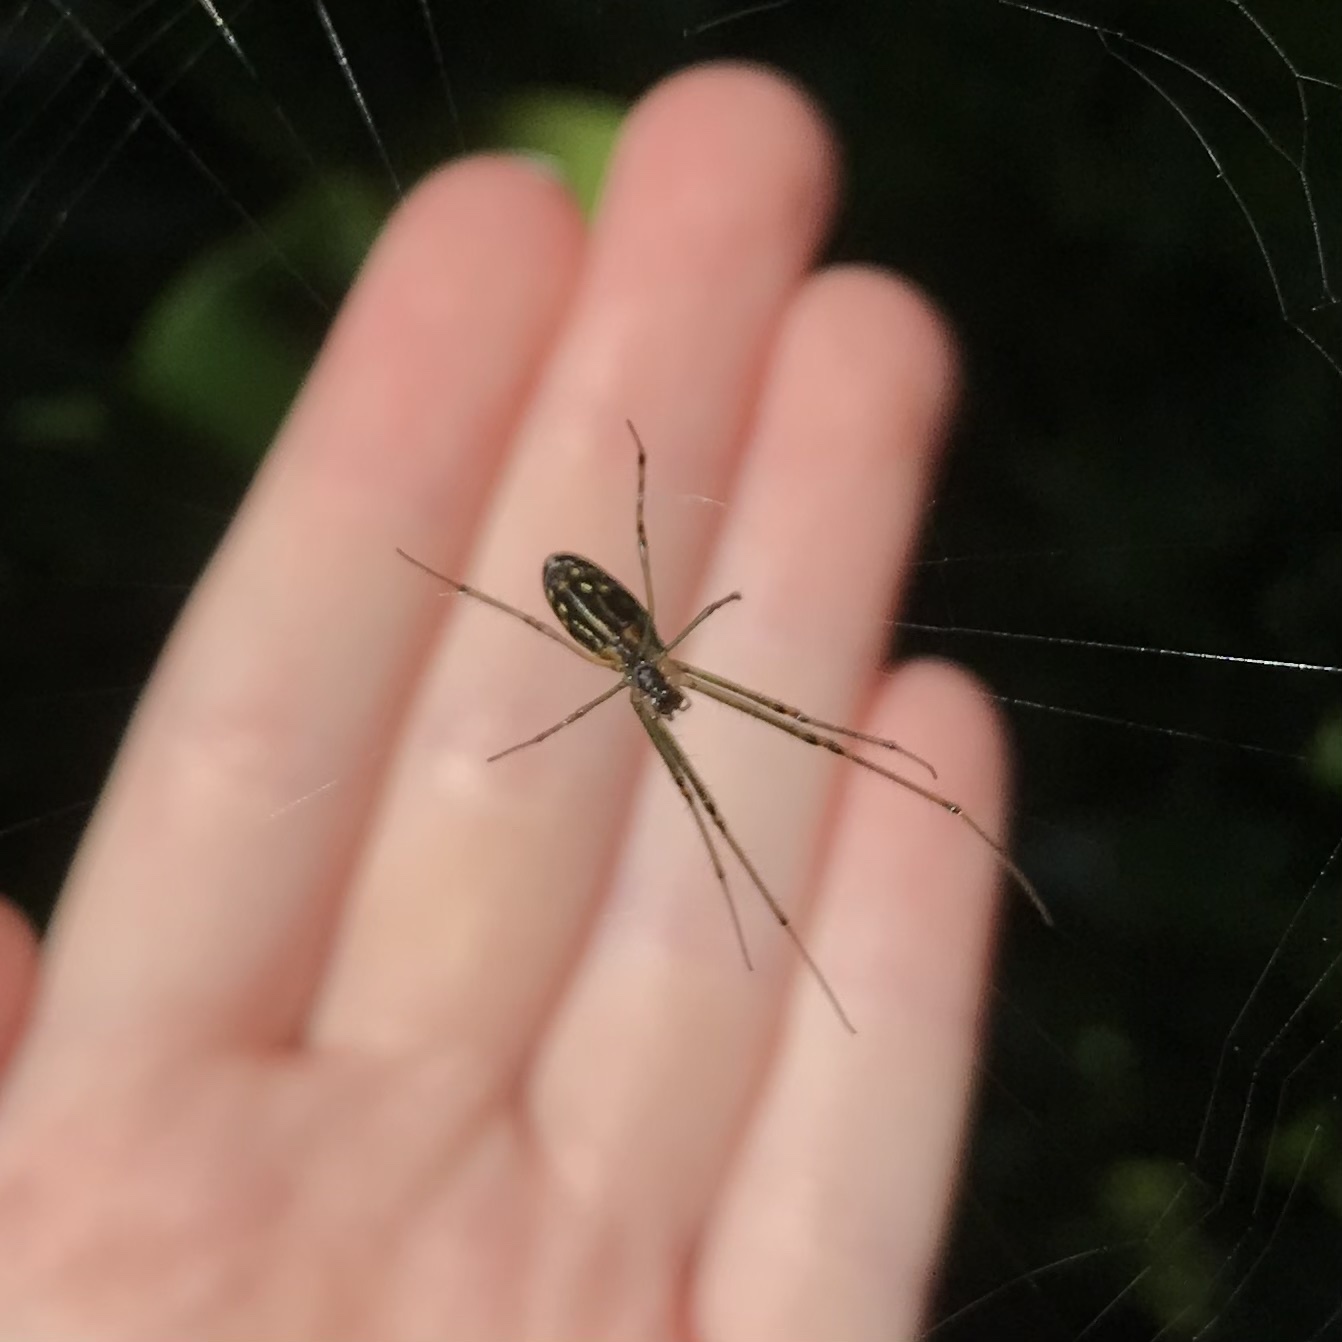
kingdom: Animalia
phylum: Arthropoda
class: Arachnida
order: Araneae
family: Tetragnathidae
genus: Leucauge
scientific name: Leucauge dromedaria
